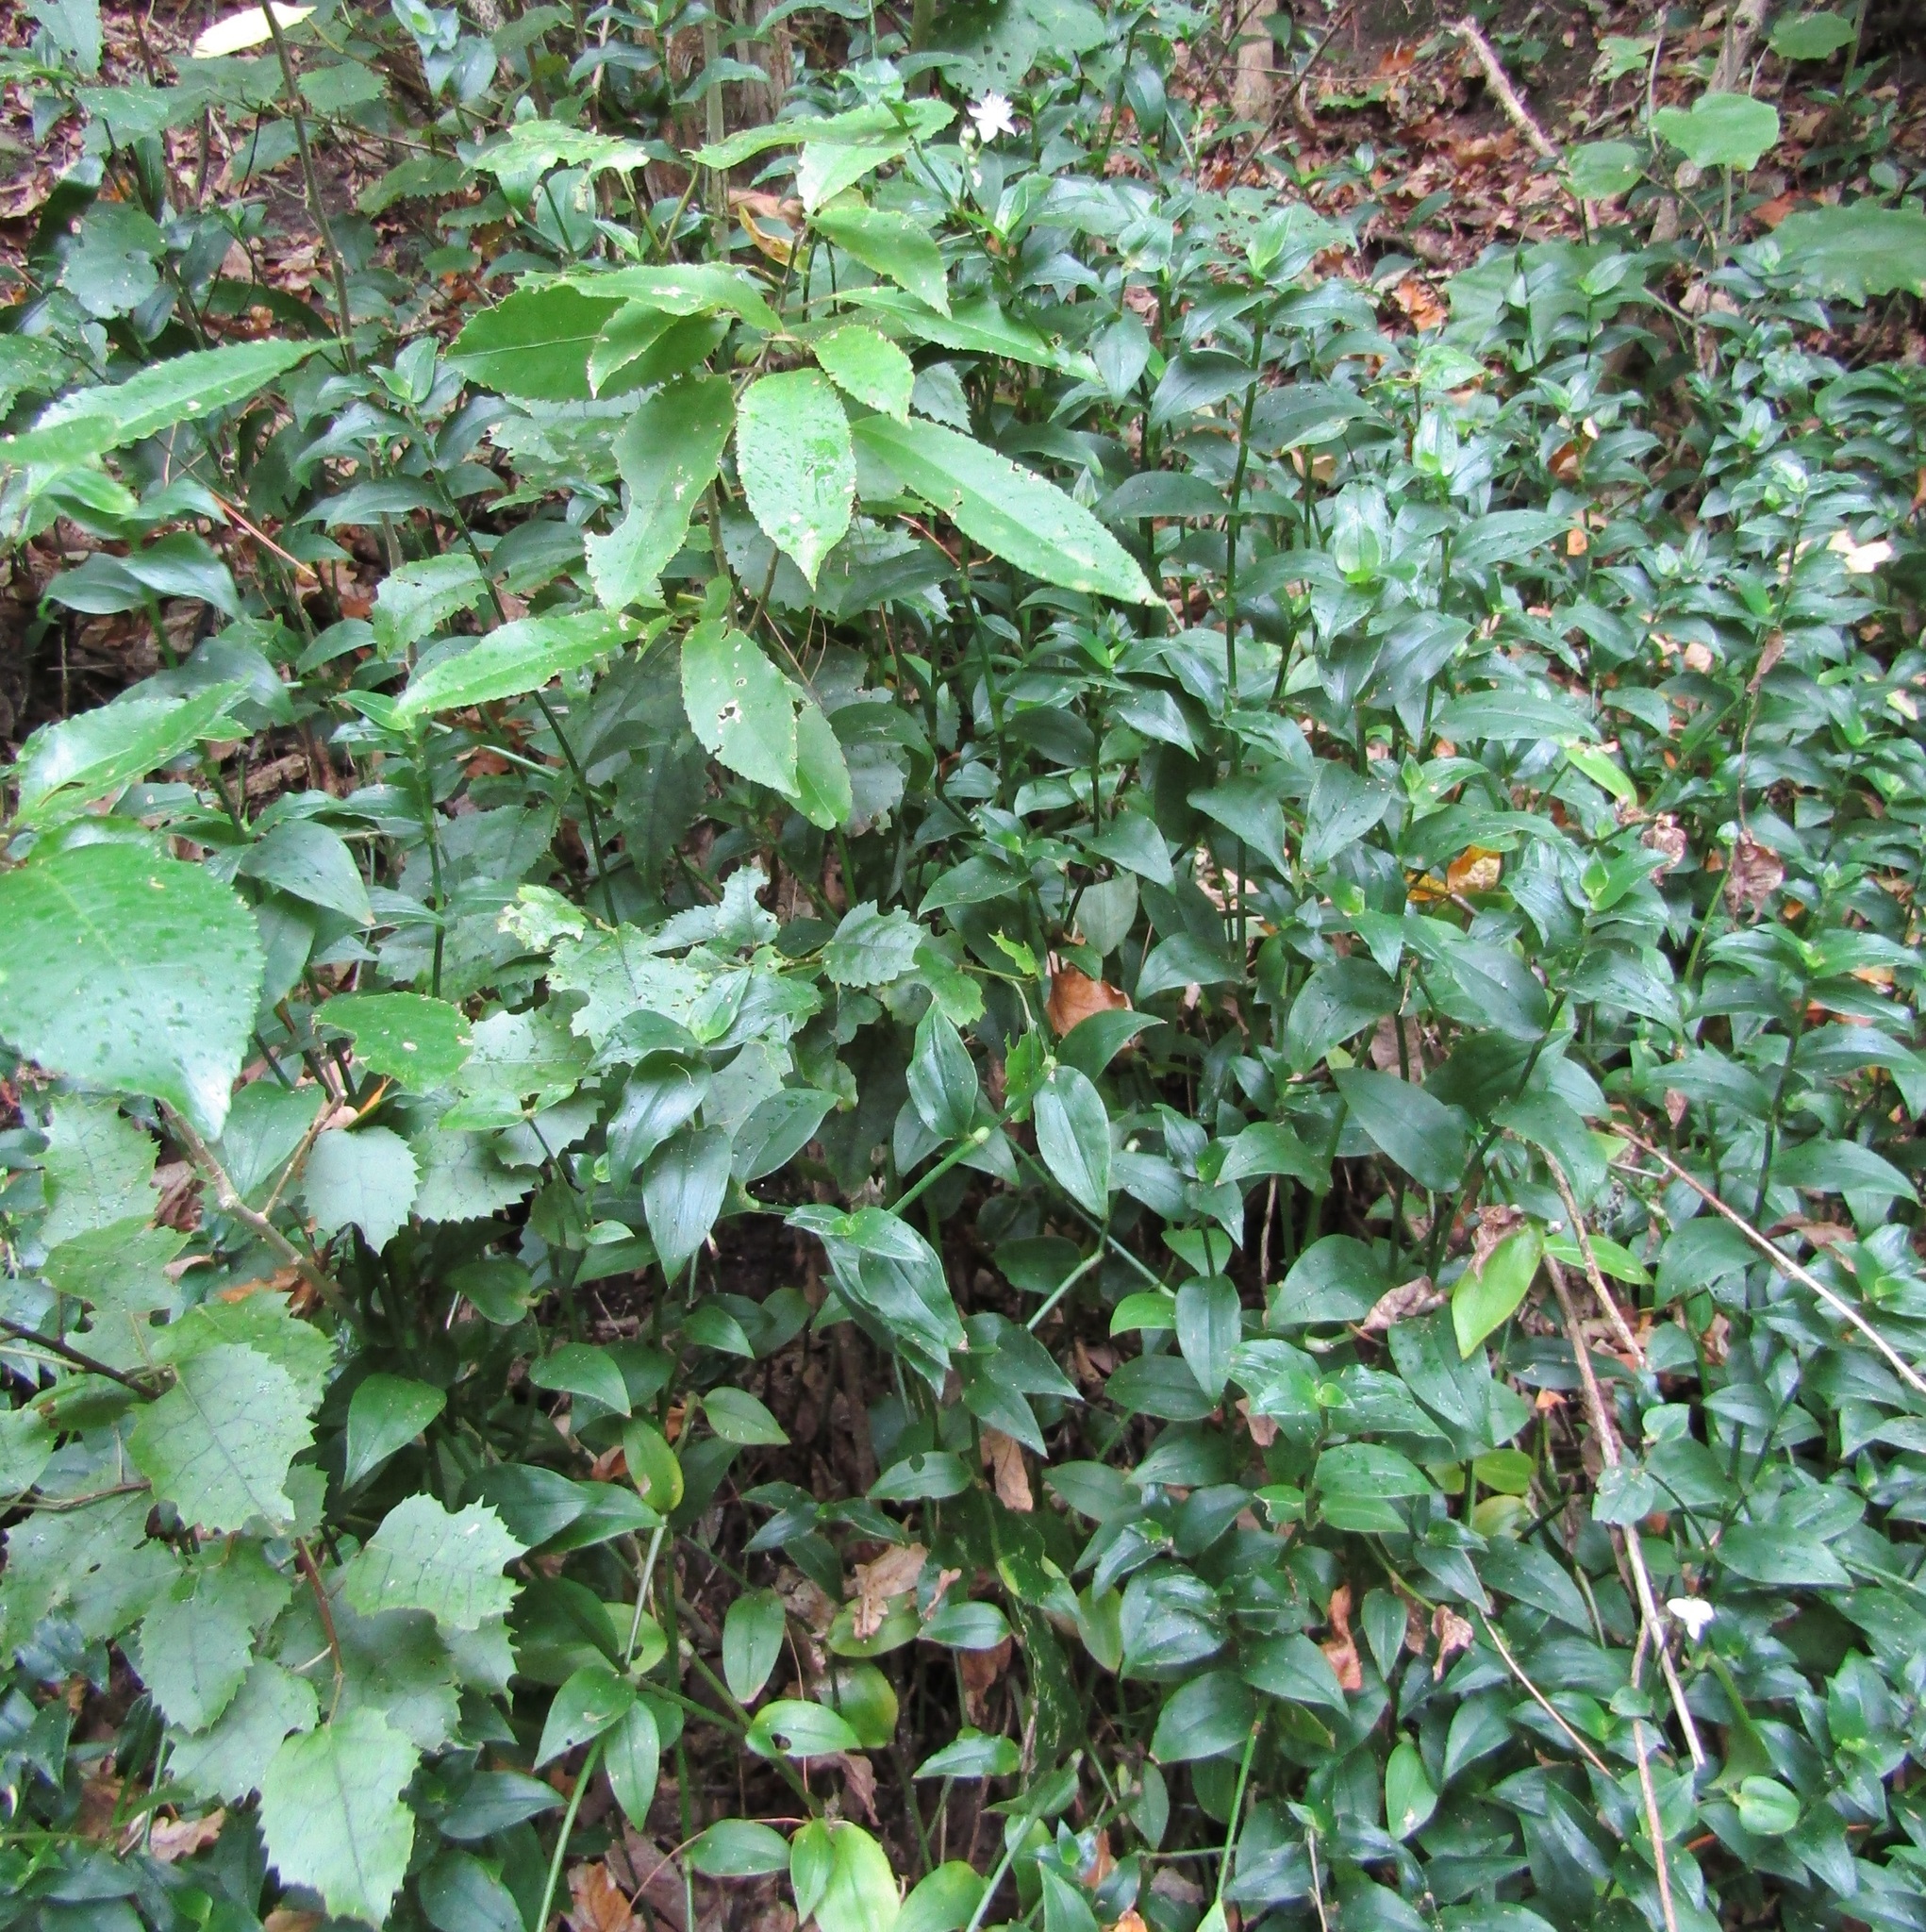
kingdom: Plantae
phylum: Tracheophyta
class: Liliopsida
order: Commelinales
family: Commelinaceae
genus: Tradescantia
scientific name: Tradescantia fluminensis
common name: Wandering-jew
